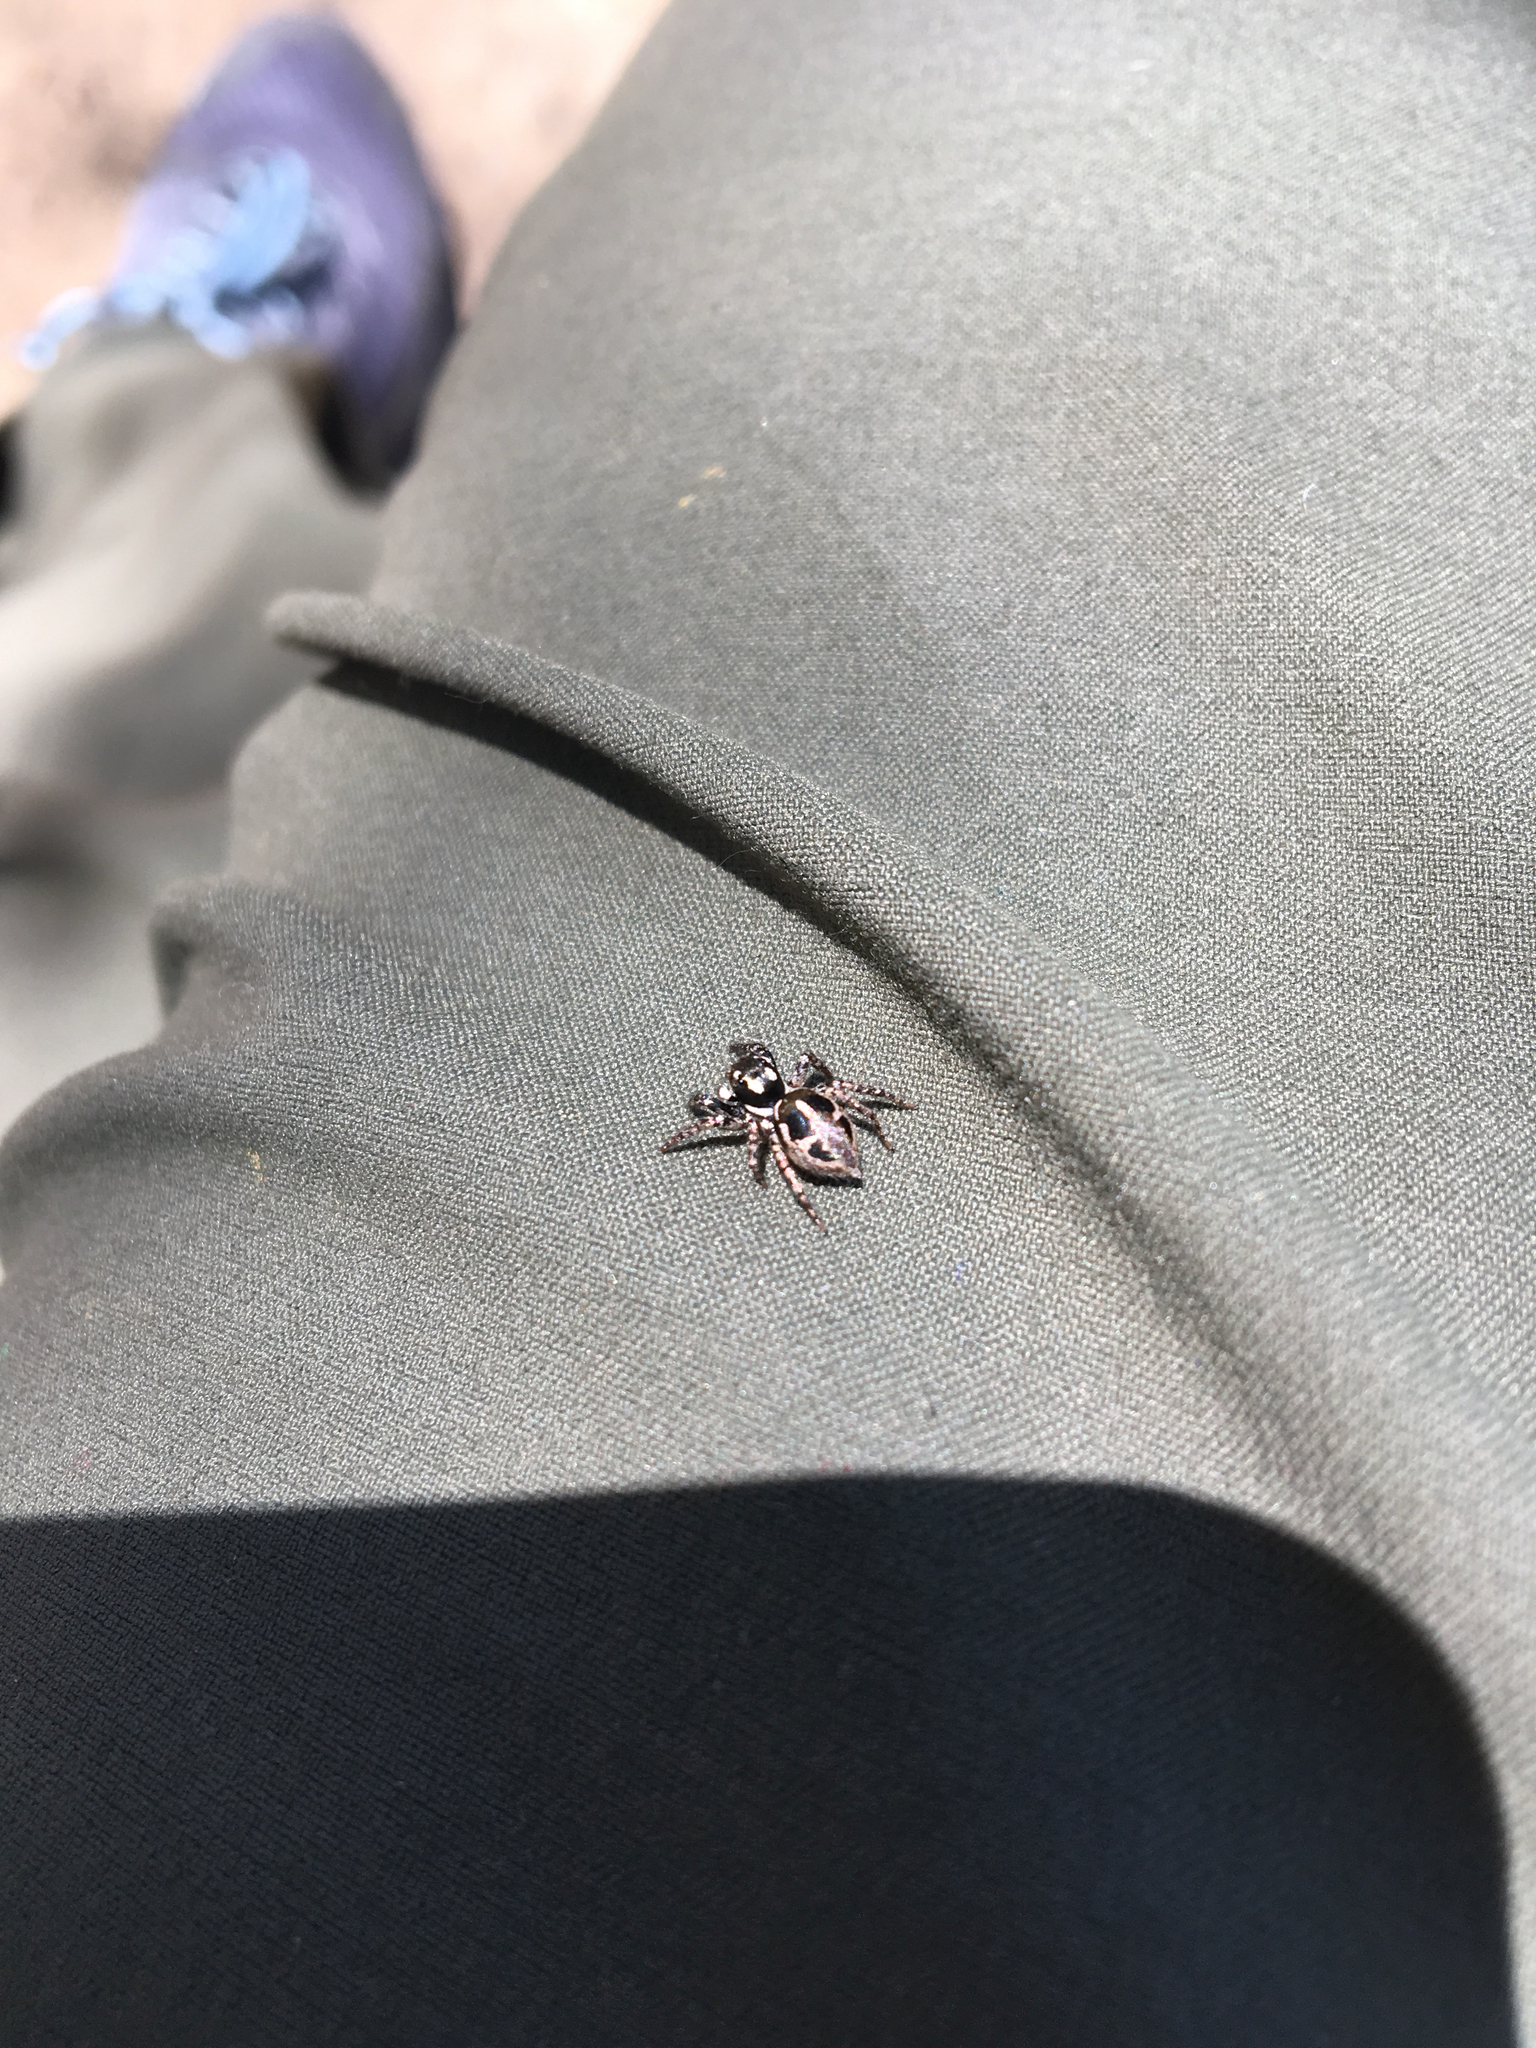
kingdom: Animalia
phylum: Arthropoda
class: Arachnida
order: Araneae
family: Salticidae
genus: Anasaitis
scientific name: Anasaitis canosa
